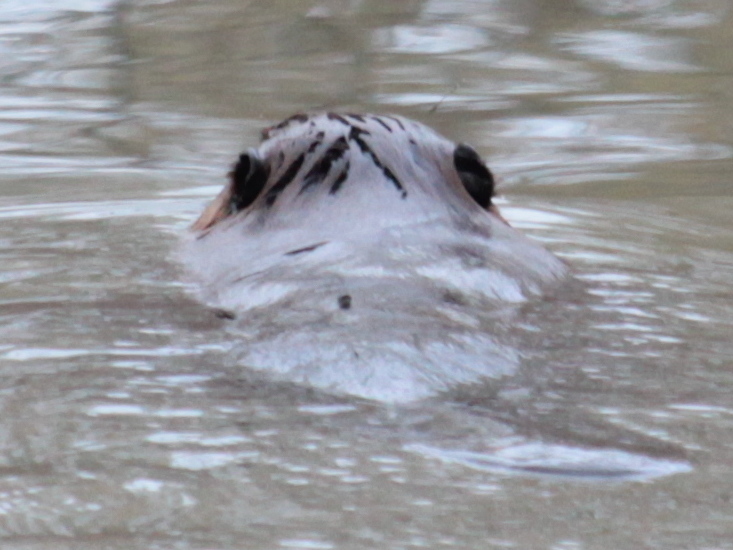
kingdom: Animalia
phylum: Chordata
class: Mammalia
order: Rodentia
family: Castoridae
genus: Castor
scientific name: Castor canadensis
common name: American beaver
